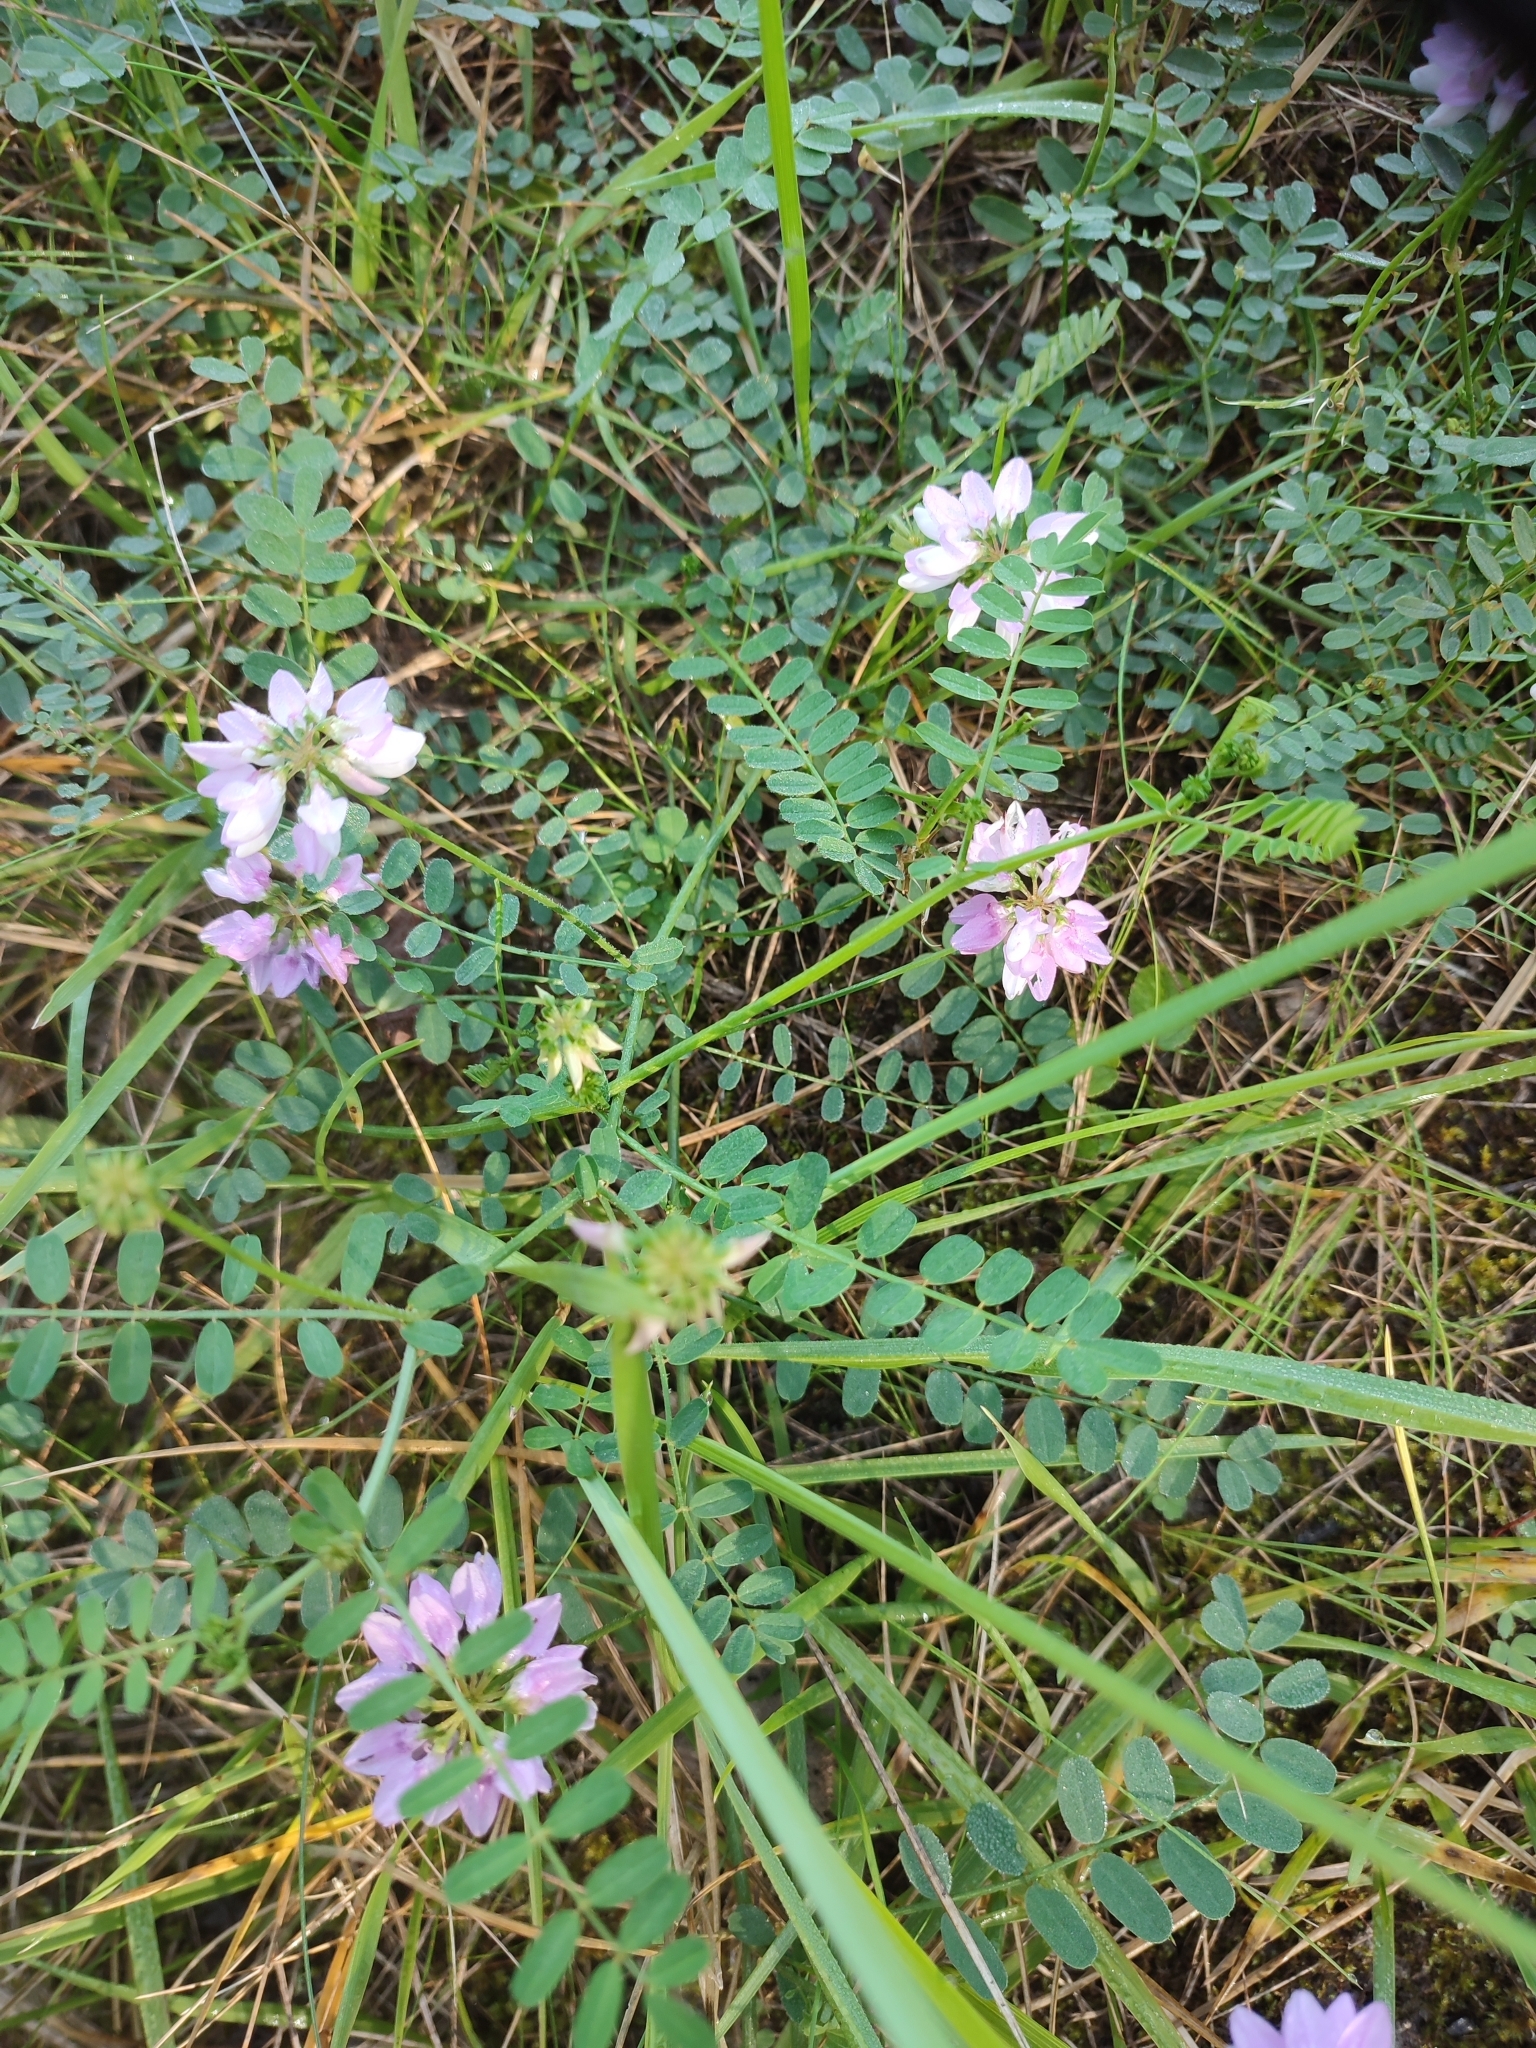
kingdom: Plantae
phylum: Tracheophyta
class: Magnoliopsida
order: Fabales
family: Fabaceae
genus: Coronilla
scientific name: Coronilla varia
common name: Crownvetch
